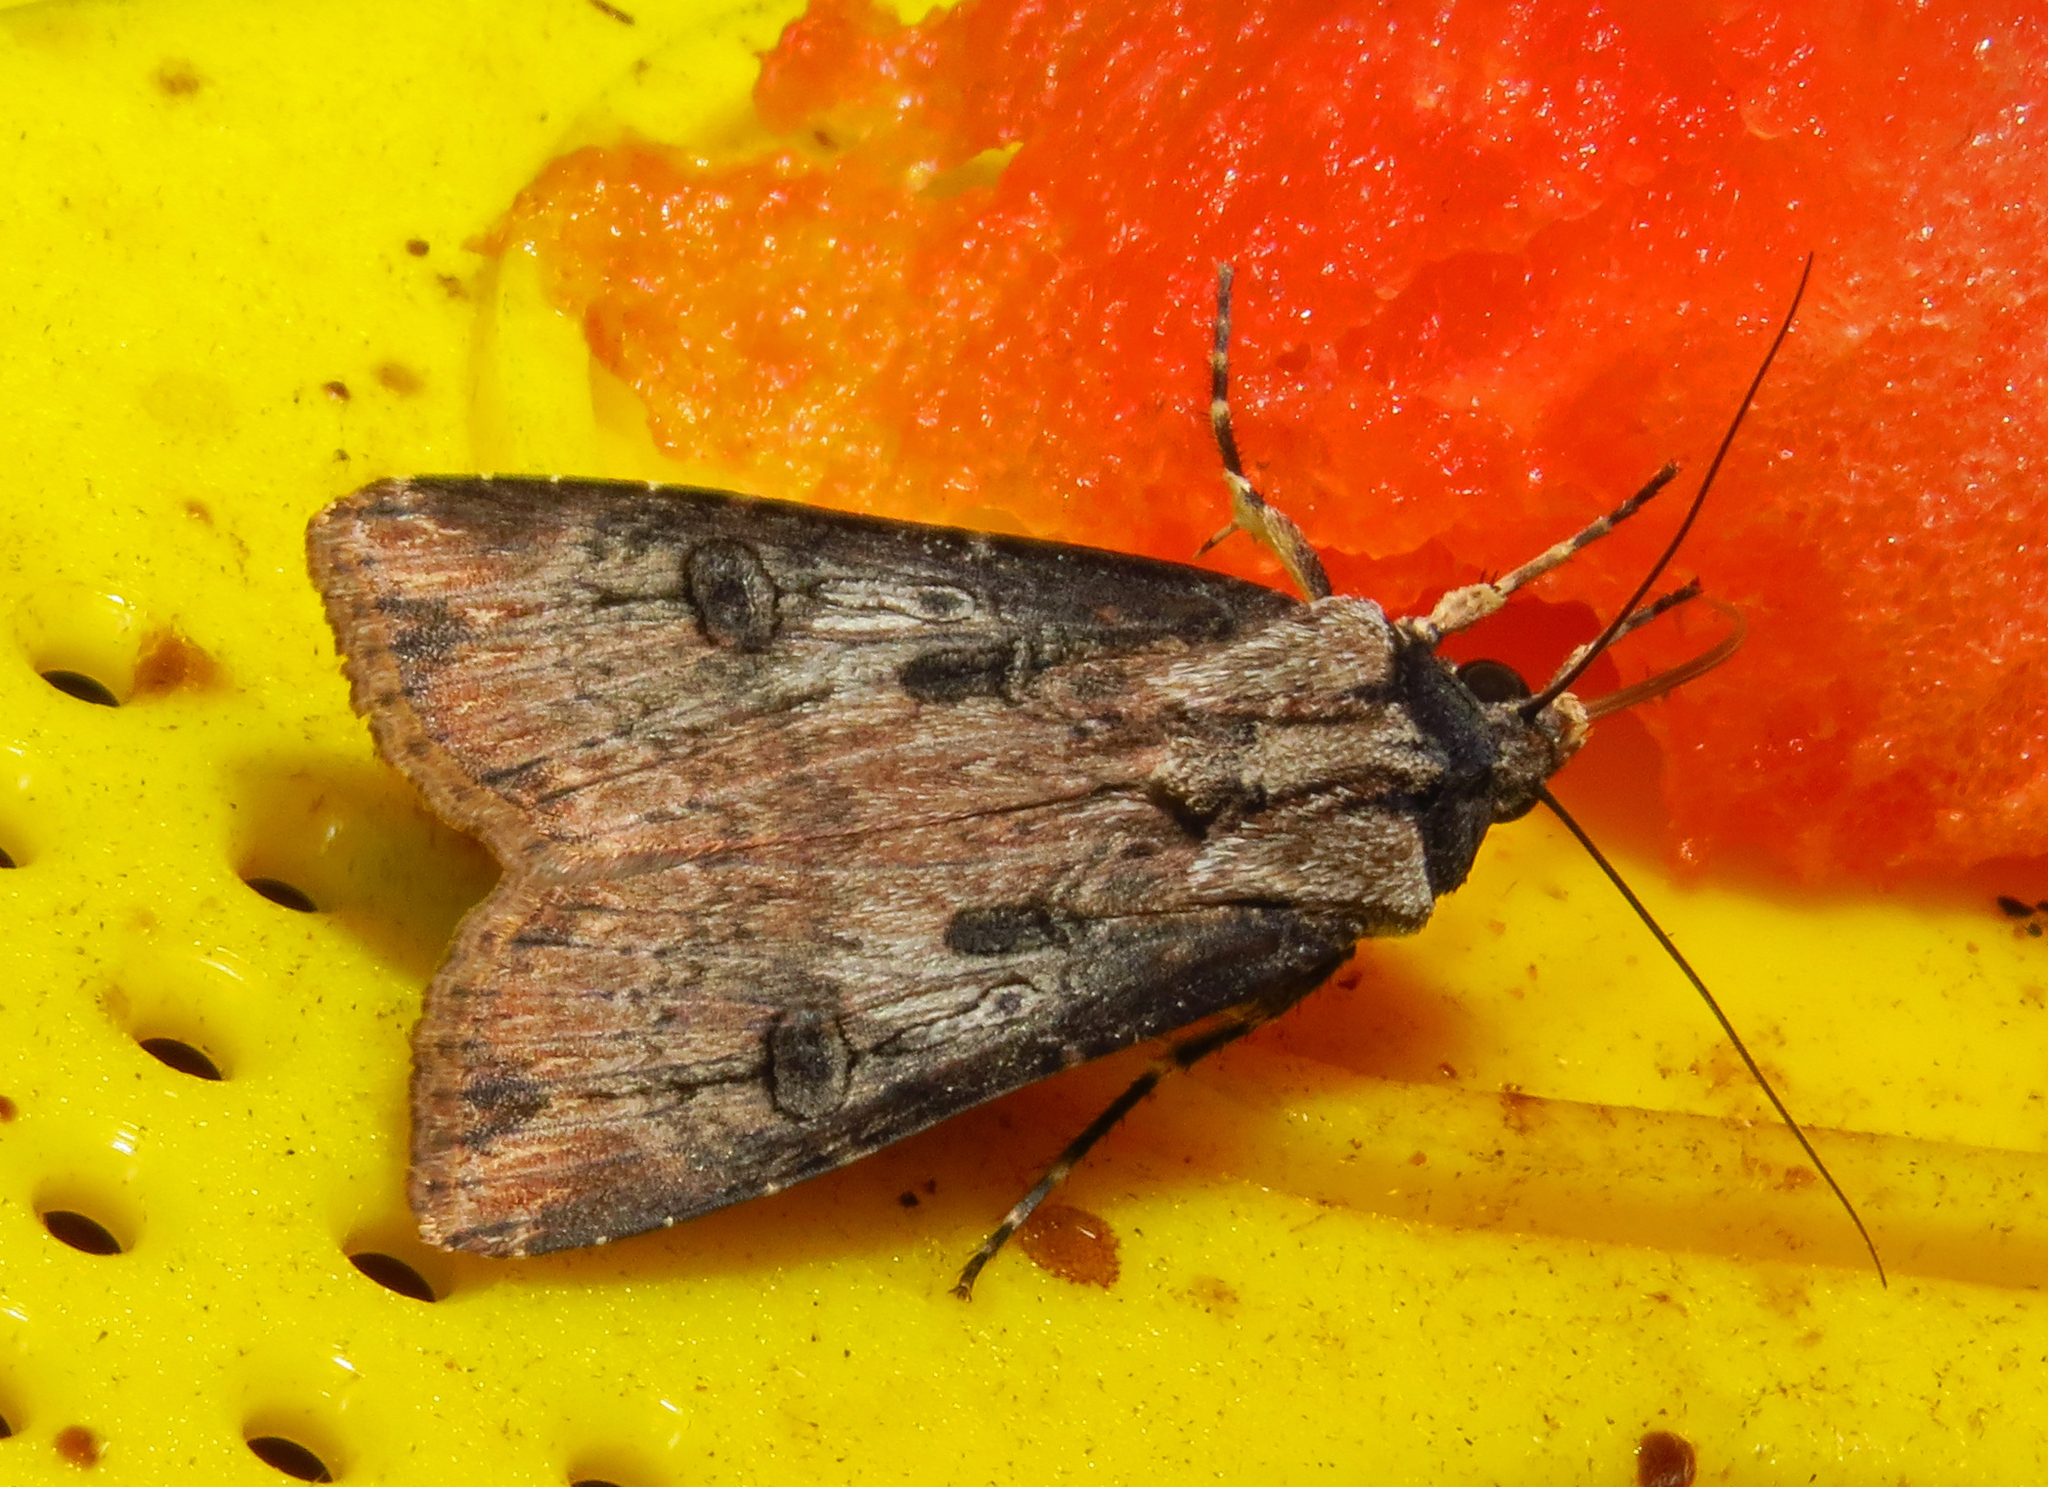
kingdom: Animalia
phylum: Arthropoda
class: Insecta
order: Lepidoptera
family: Noctuidae
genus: Agrotis
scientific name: Agrotis ipsilon
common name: Dark sword-grass
